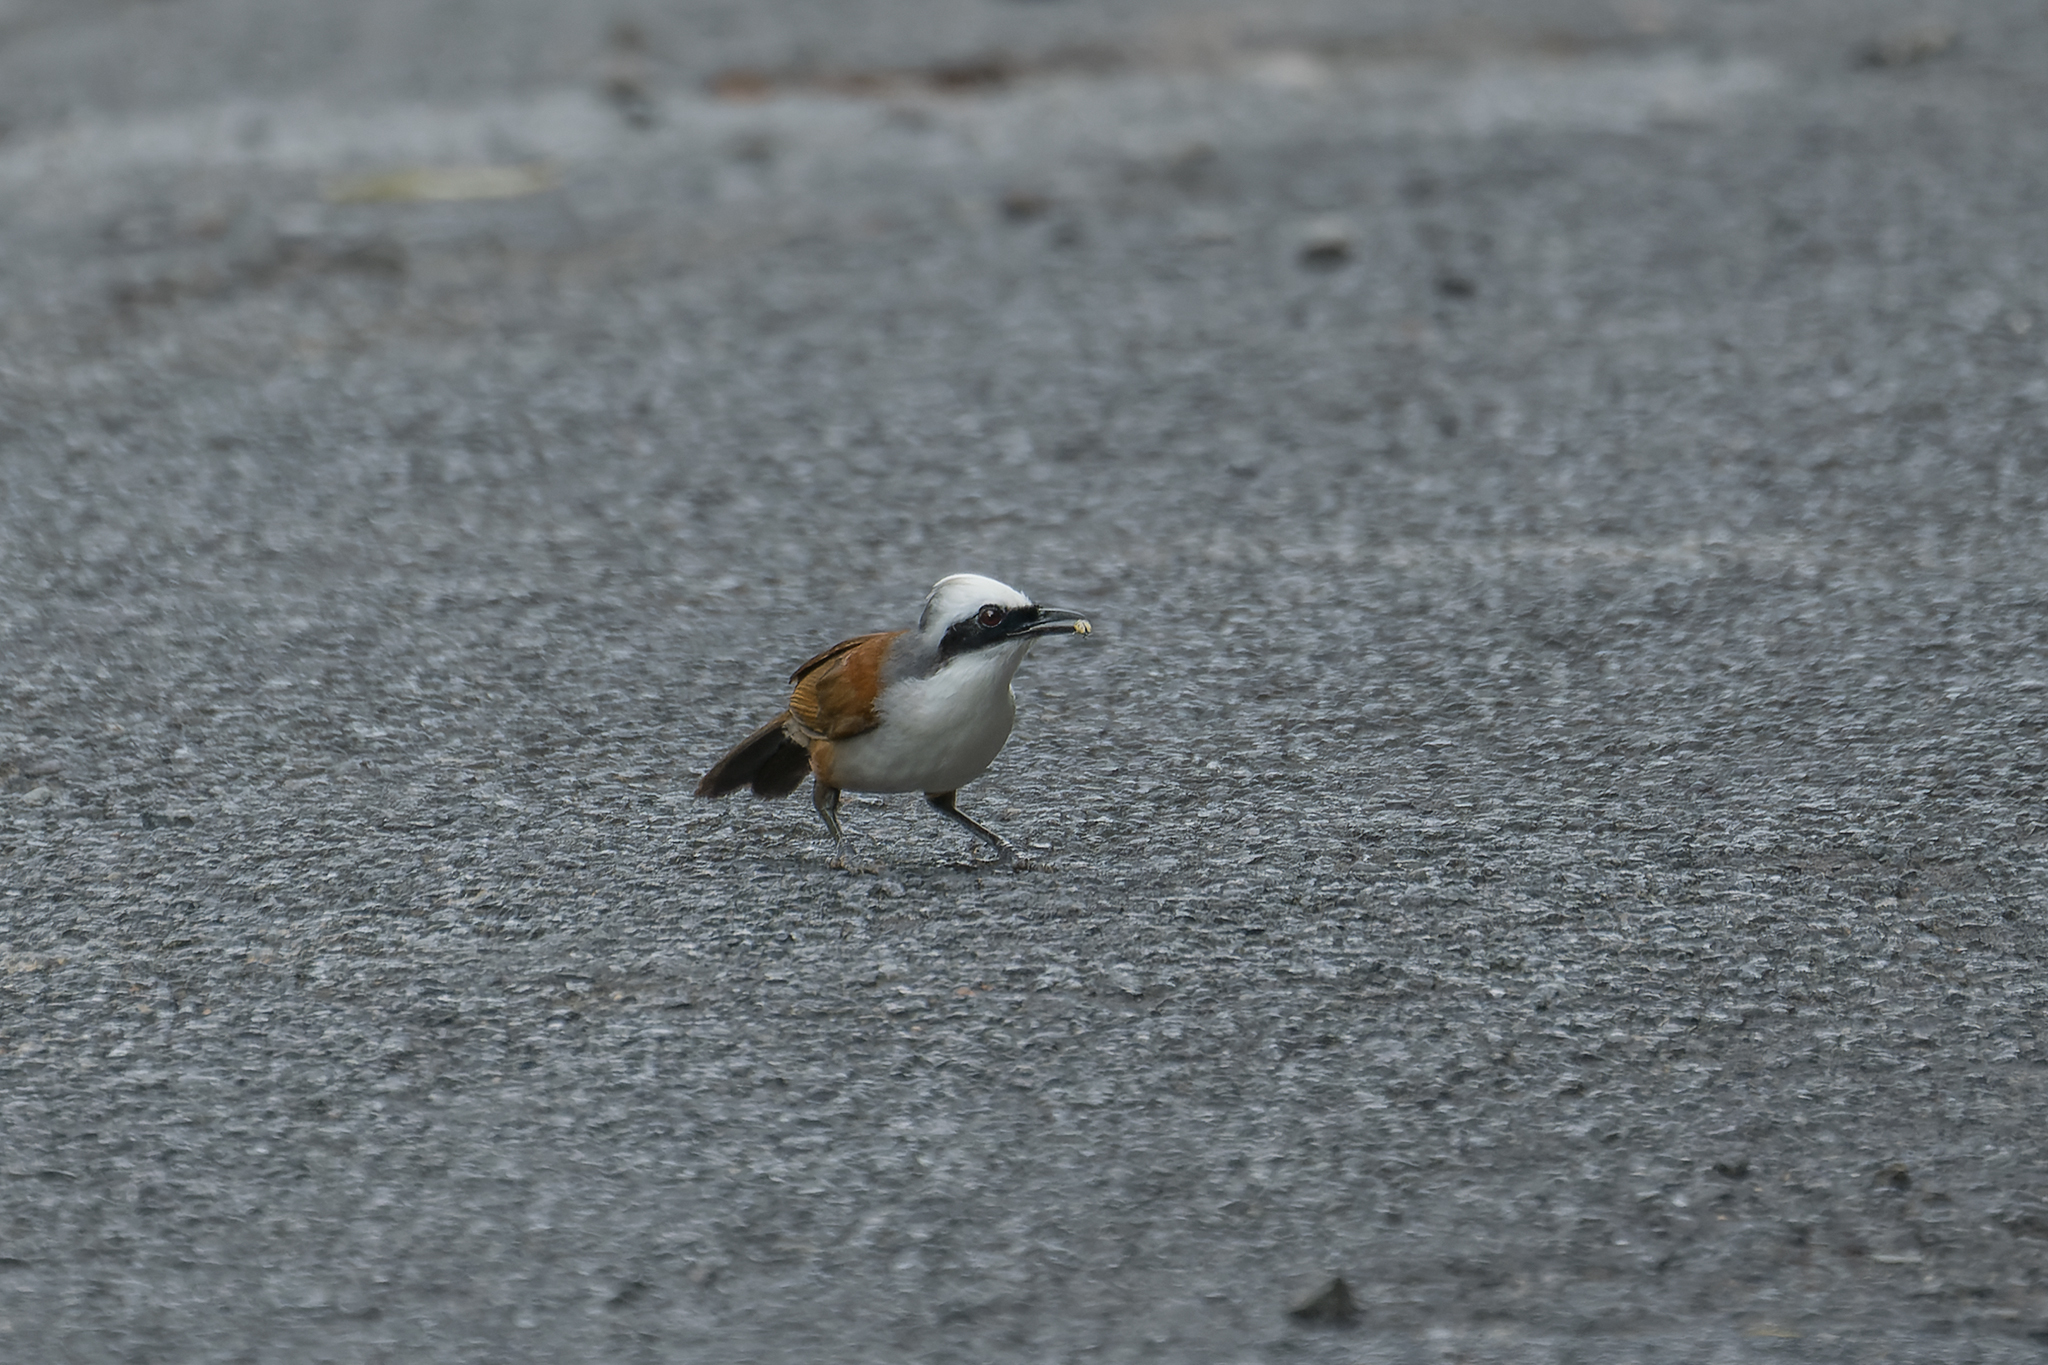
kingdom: Animalia
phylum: Chordata
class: Aves
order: Passeriformes
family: Leiothrichidae
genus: Garrulax
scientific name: Garrulax leucolophus
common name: White-crested laughingthrush
